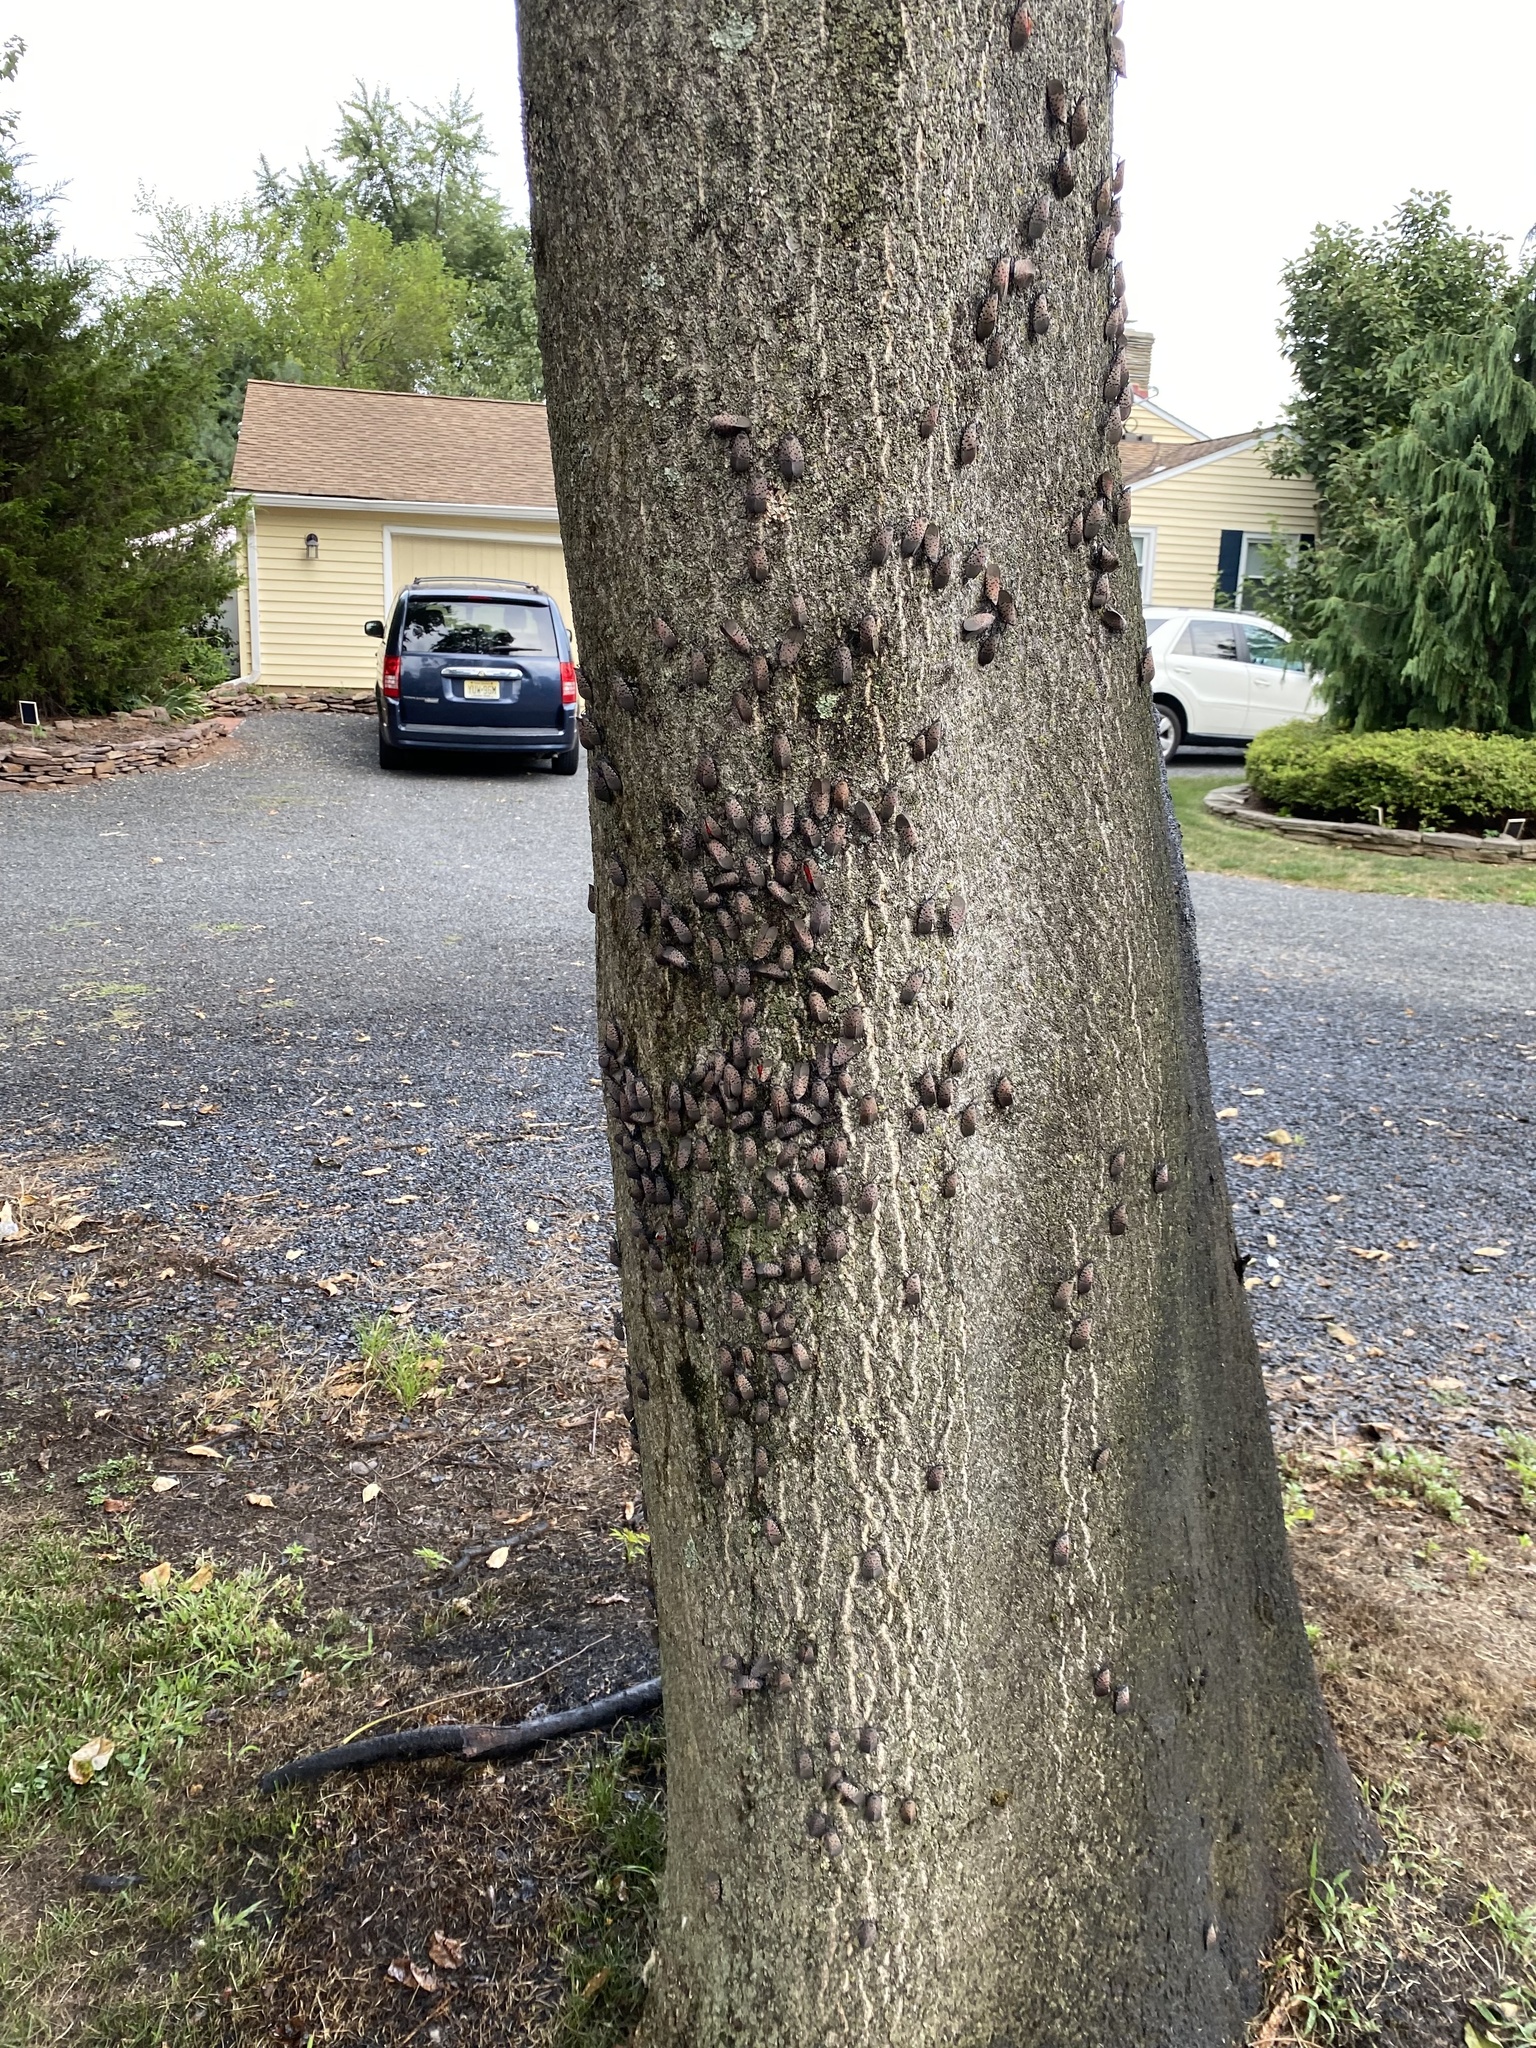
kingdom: Animalia
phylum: Arthropoda
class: Insecta
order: Hemiptera
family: Fulgoridae
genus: Lycorma
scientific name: Lycorma delicatula
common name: Spotted lanternfly
